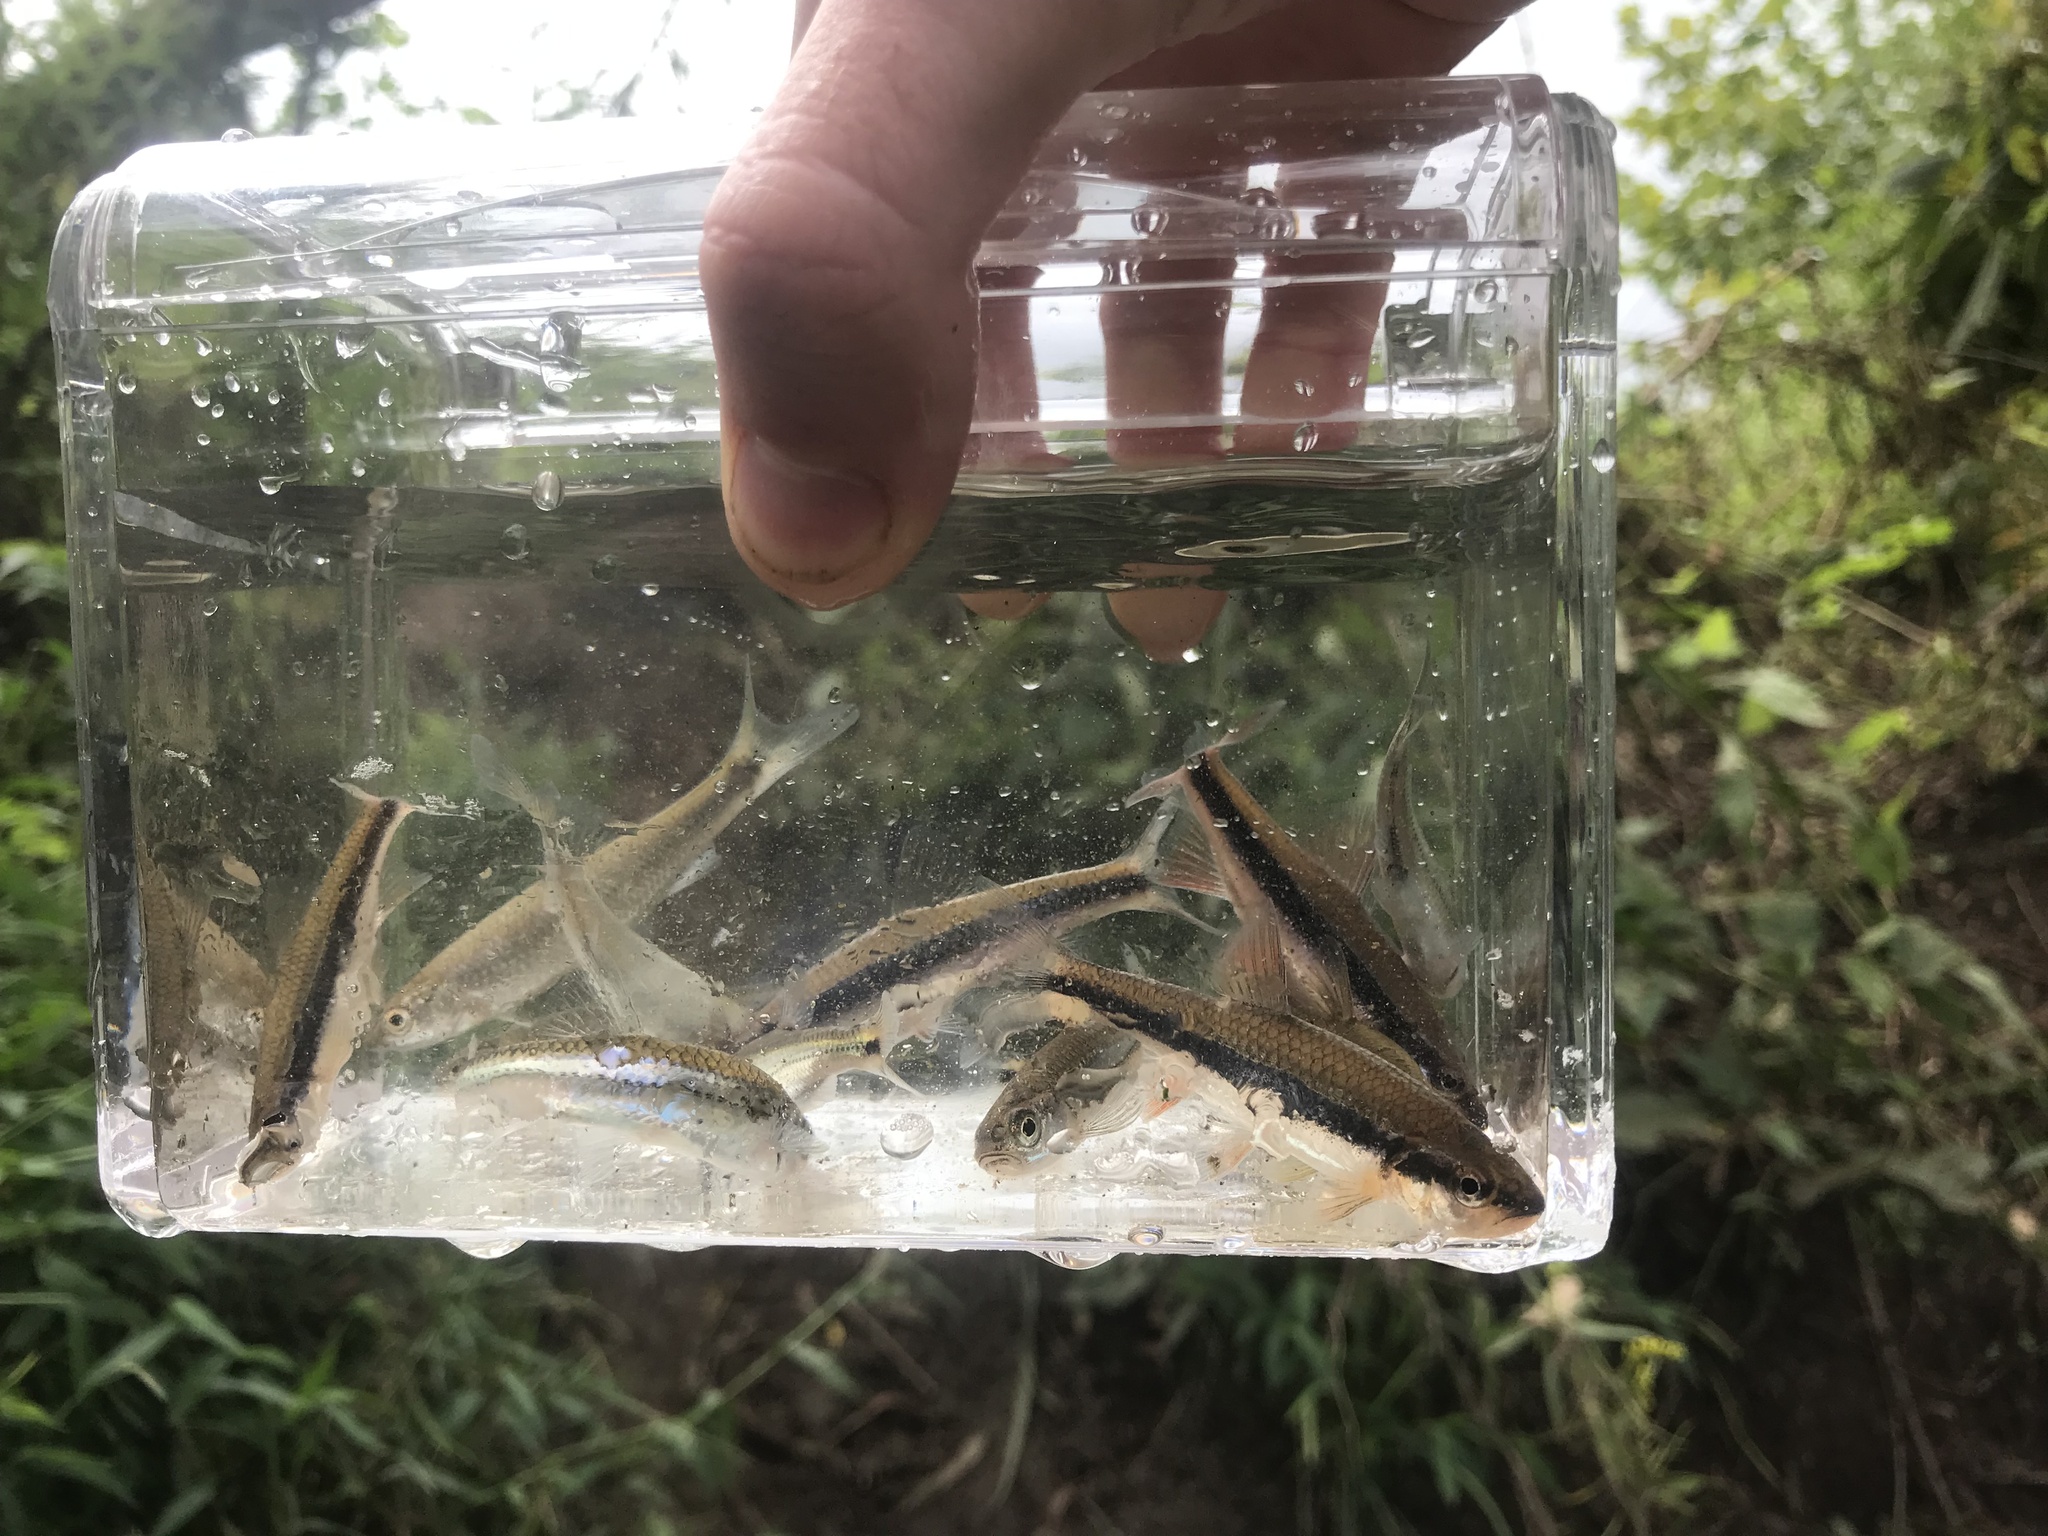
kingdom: Animalia
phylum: Chordata
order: Cypriniformes
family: Cyprinidae
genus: Notropis
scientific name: Notropis lutipinnis
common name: Yellowfin shiner
